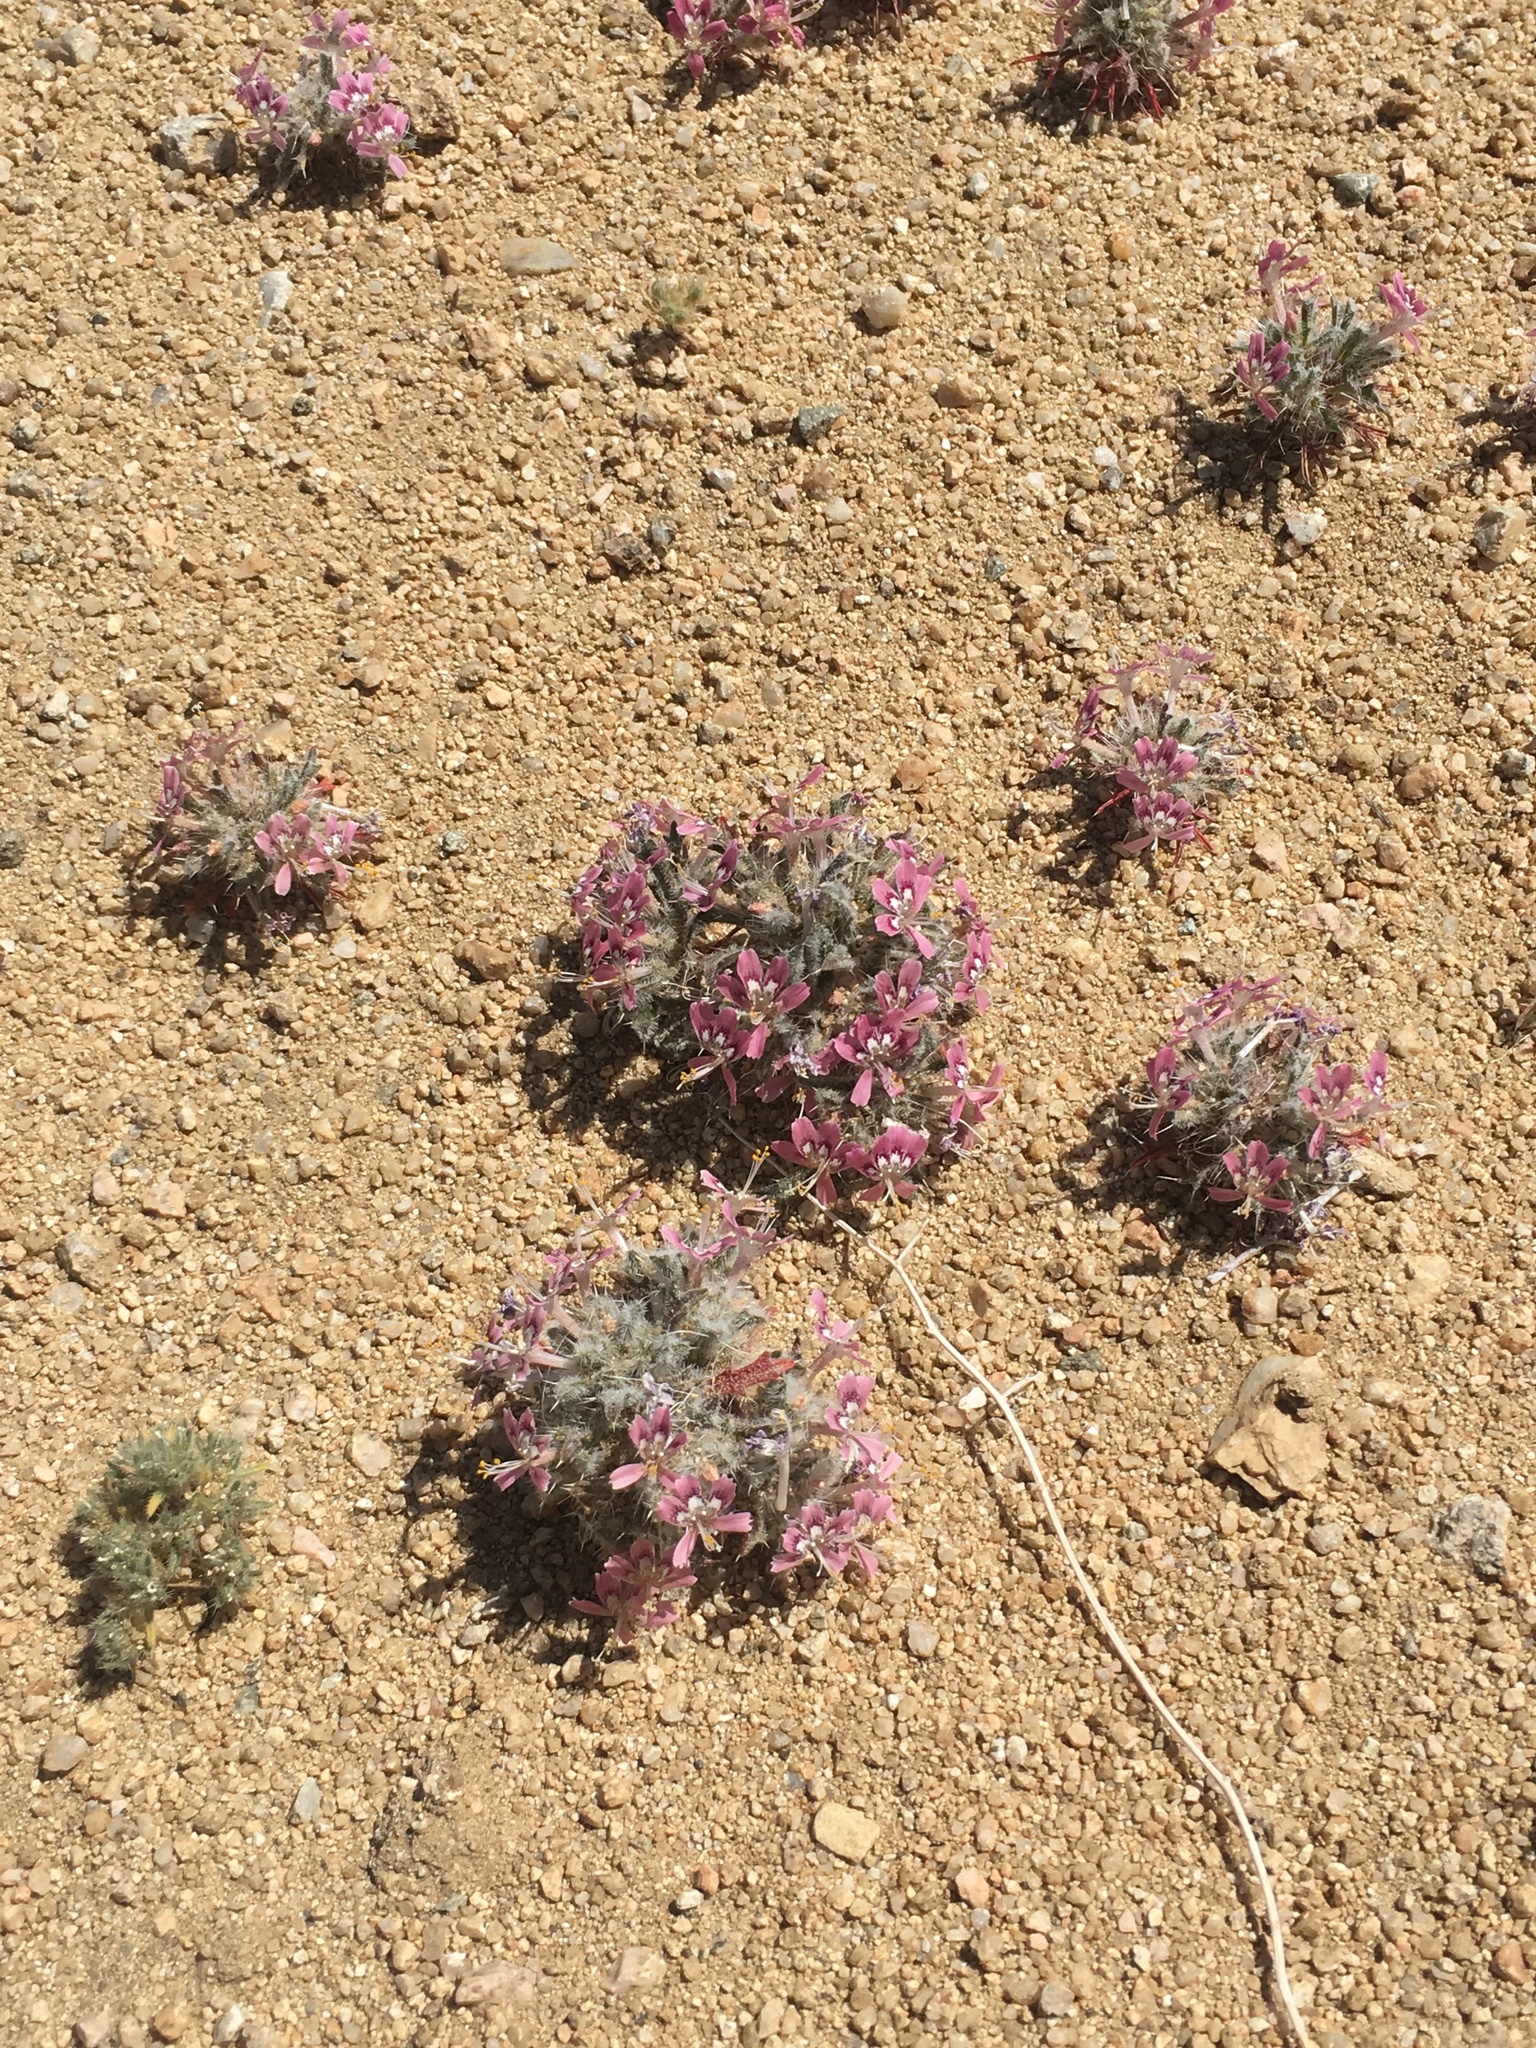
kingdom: Plantae
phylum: Tracheophyta
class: Magnoliopsida
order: Ericales
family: Polemoniaceae
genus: Loeseliastrum
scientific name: Loeseliastrum matthewsii
